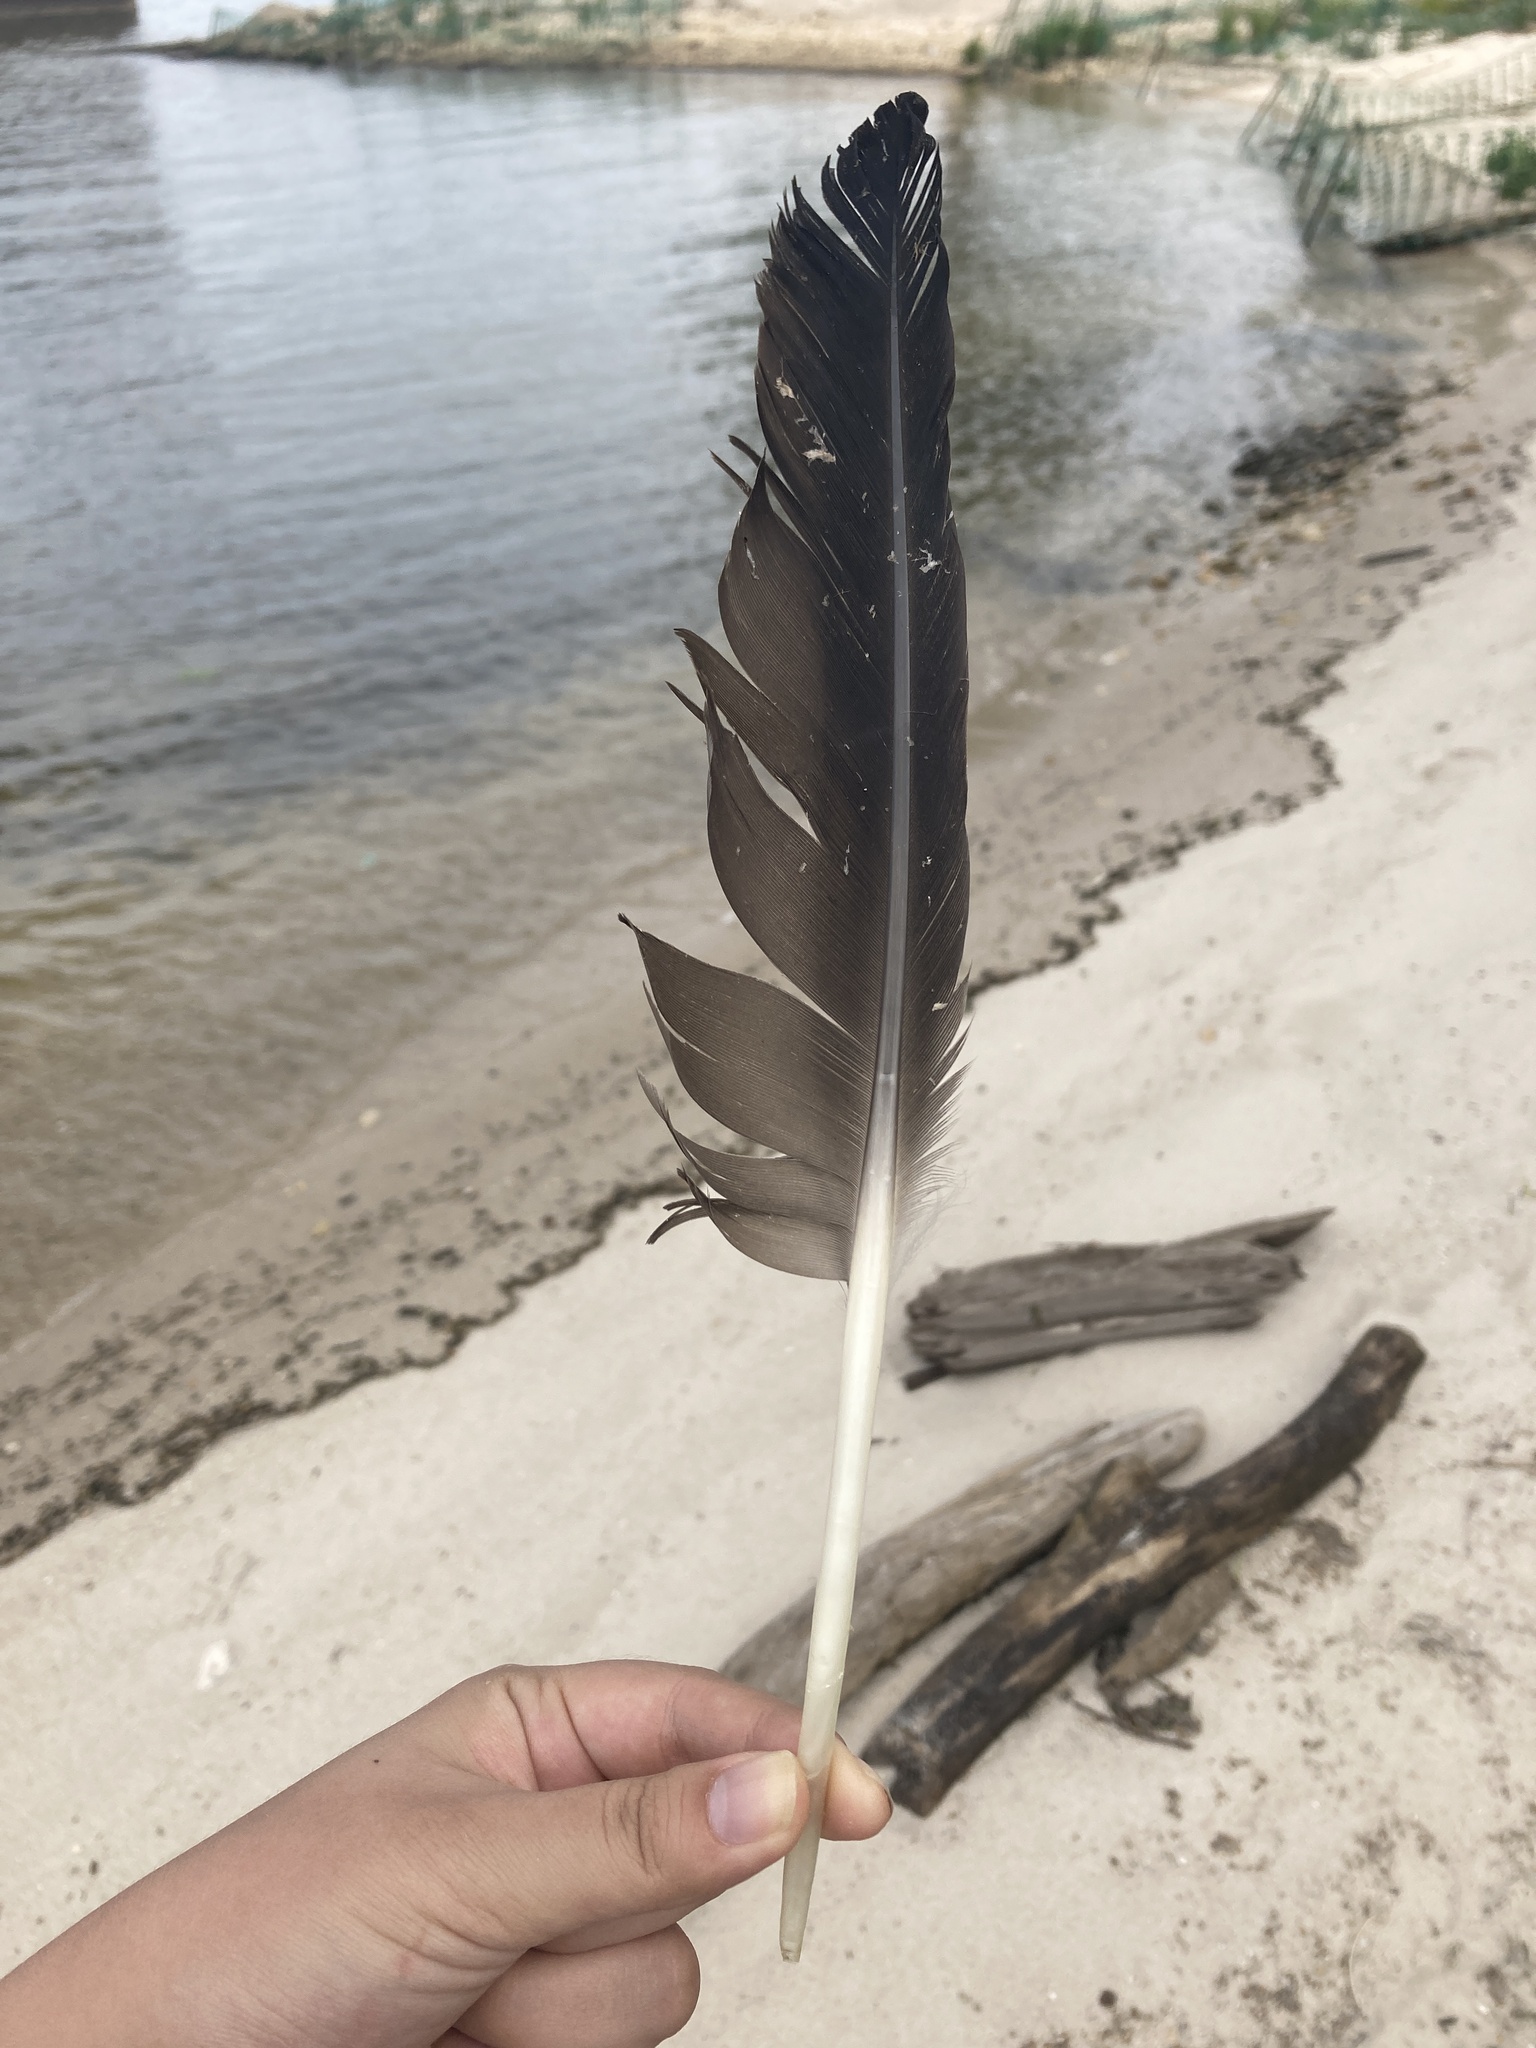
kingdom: Animalia
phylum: Chordata
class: Aves
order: Anseriformes
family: Anatidae
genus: Branta
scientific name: Branta canadensis
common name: Canada goose
